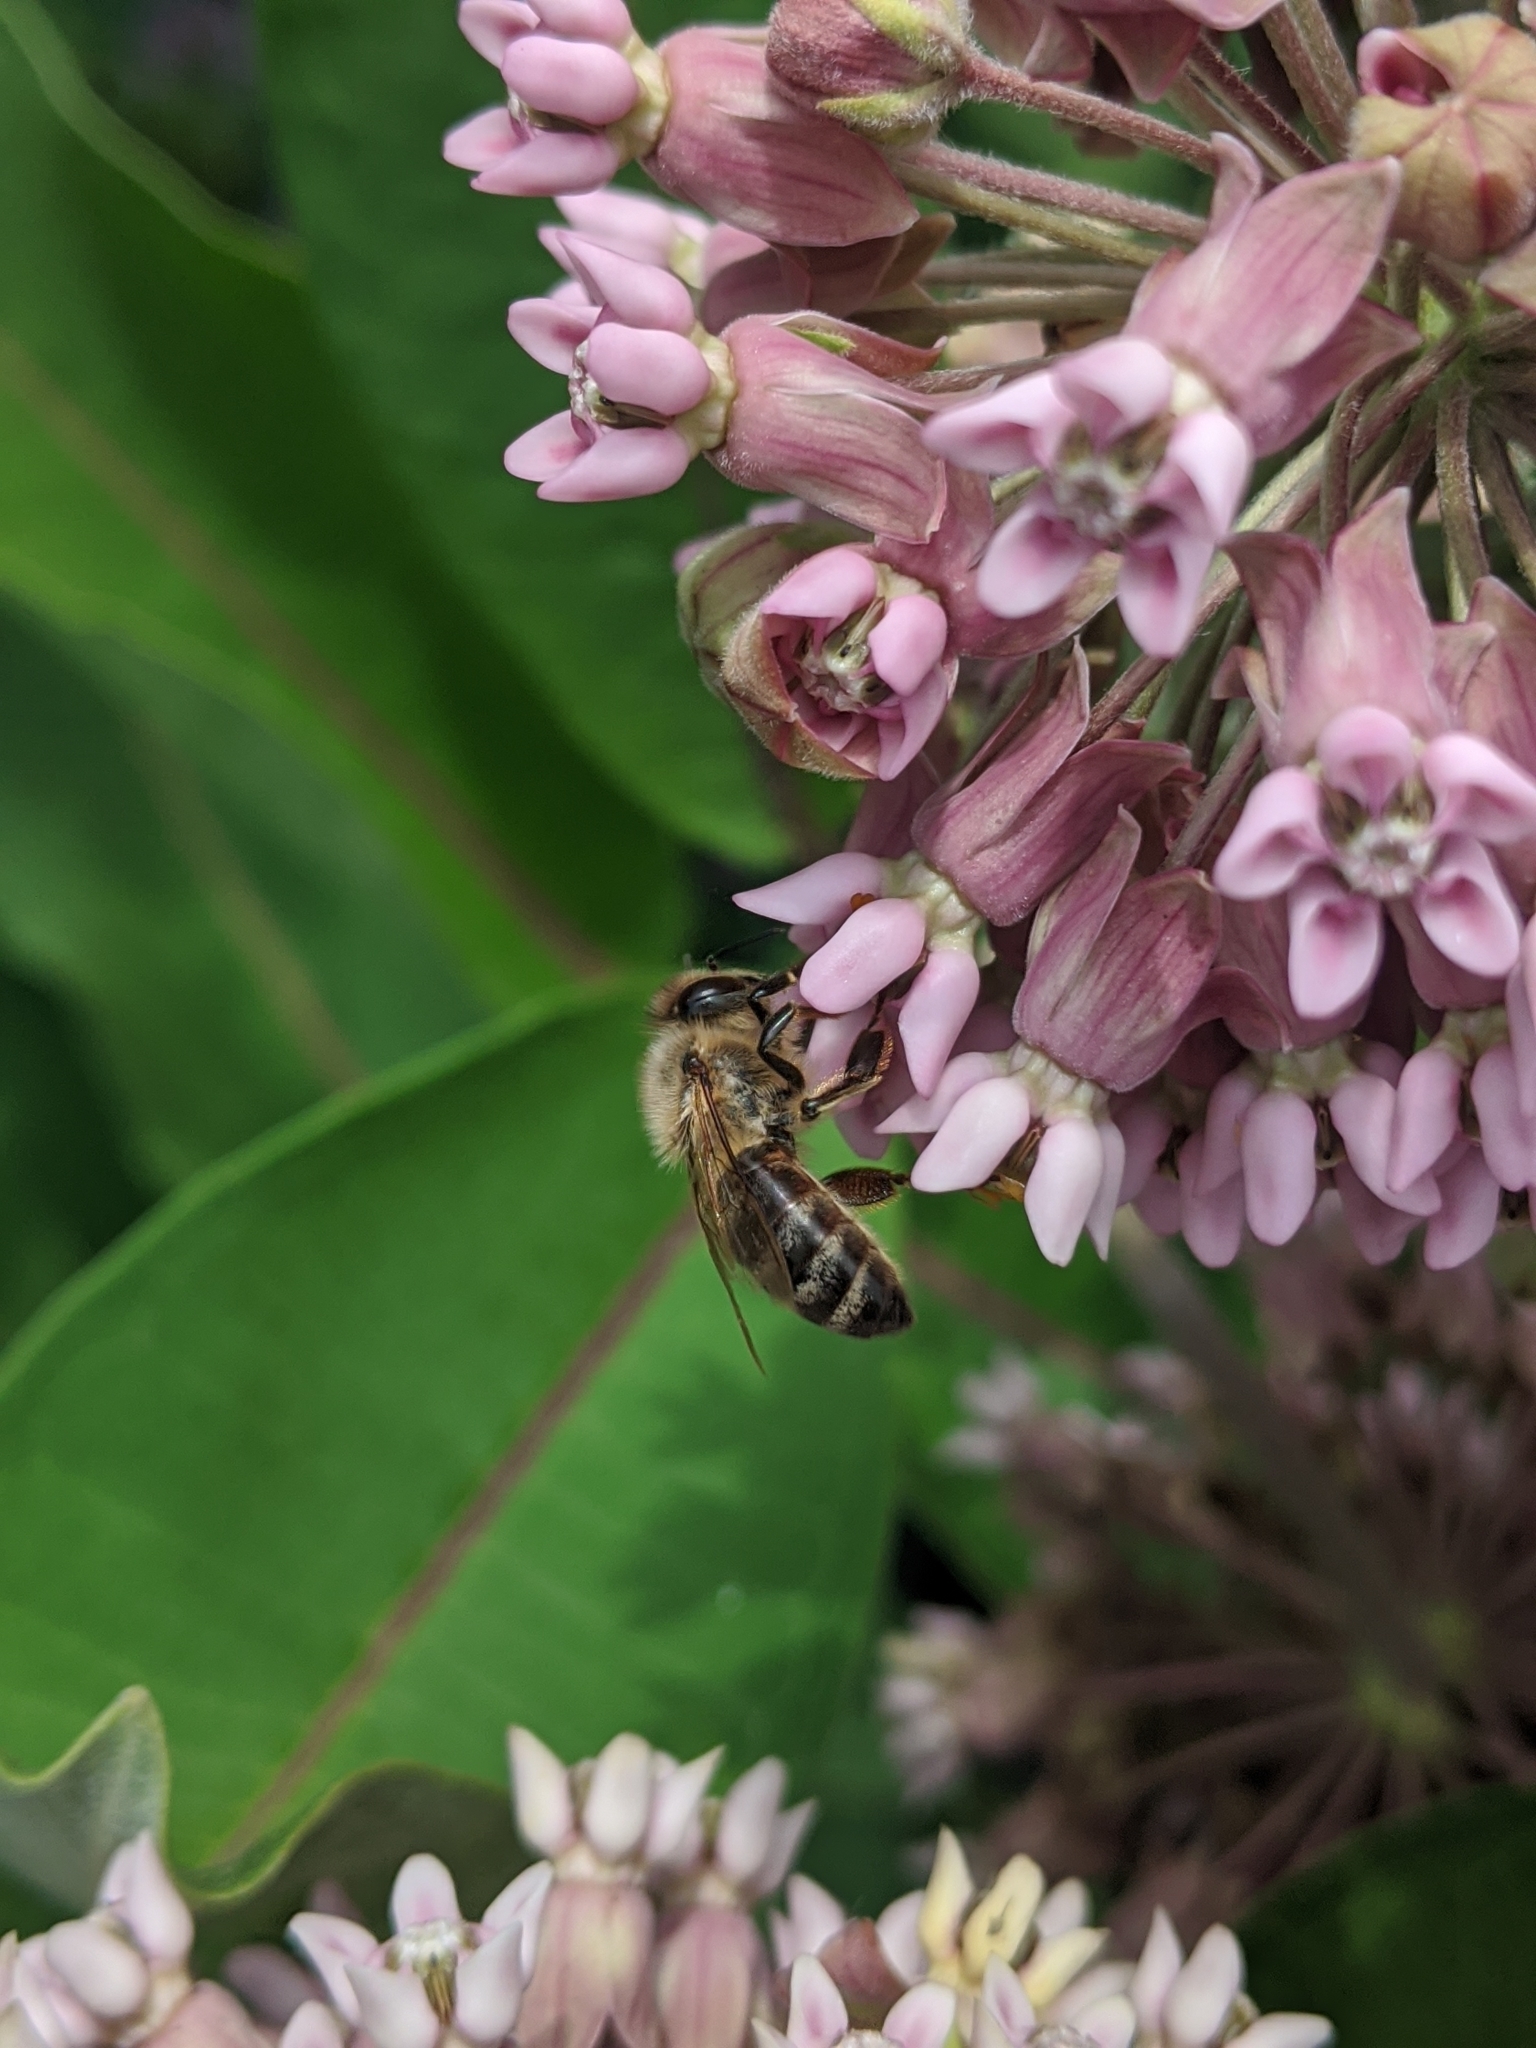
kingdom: Animalia
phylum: Arthropoda
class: Insecta
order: Hymenoptera
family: Apidae
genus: Apis
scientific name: Apis mellifera
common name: Honey bee
